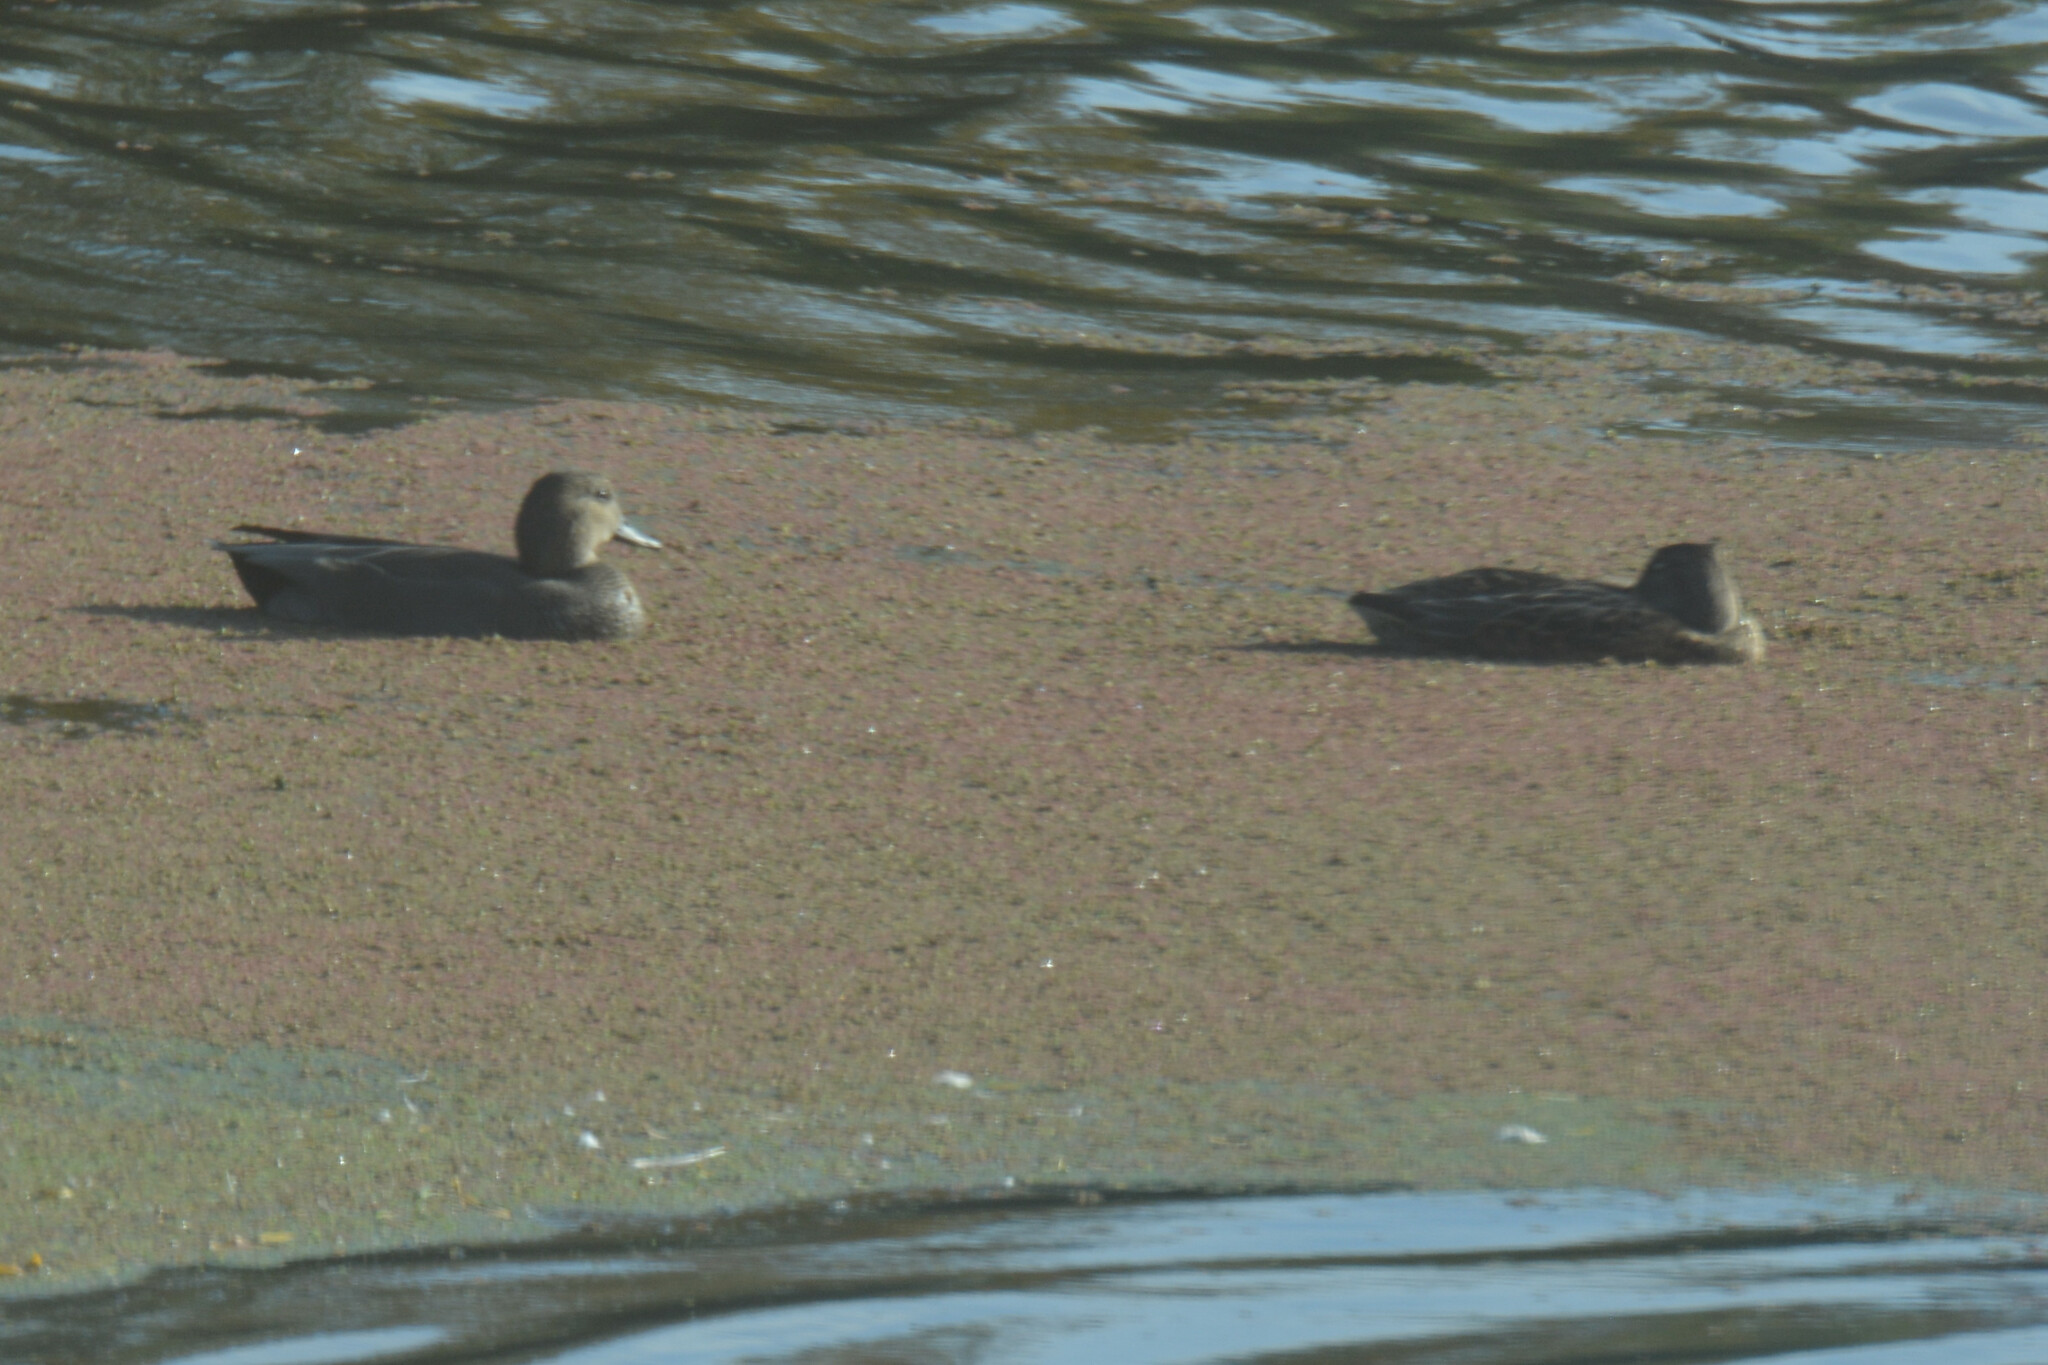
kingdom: Animalia
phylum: Chordata
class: Aves
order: Anseriformes
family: Anatidae
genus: Mareca
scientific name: Mareca strepera
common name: Gadwall
